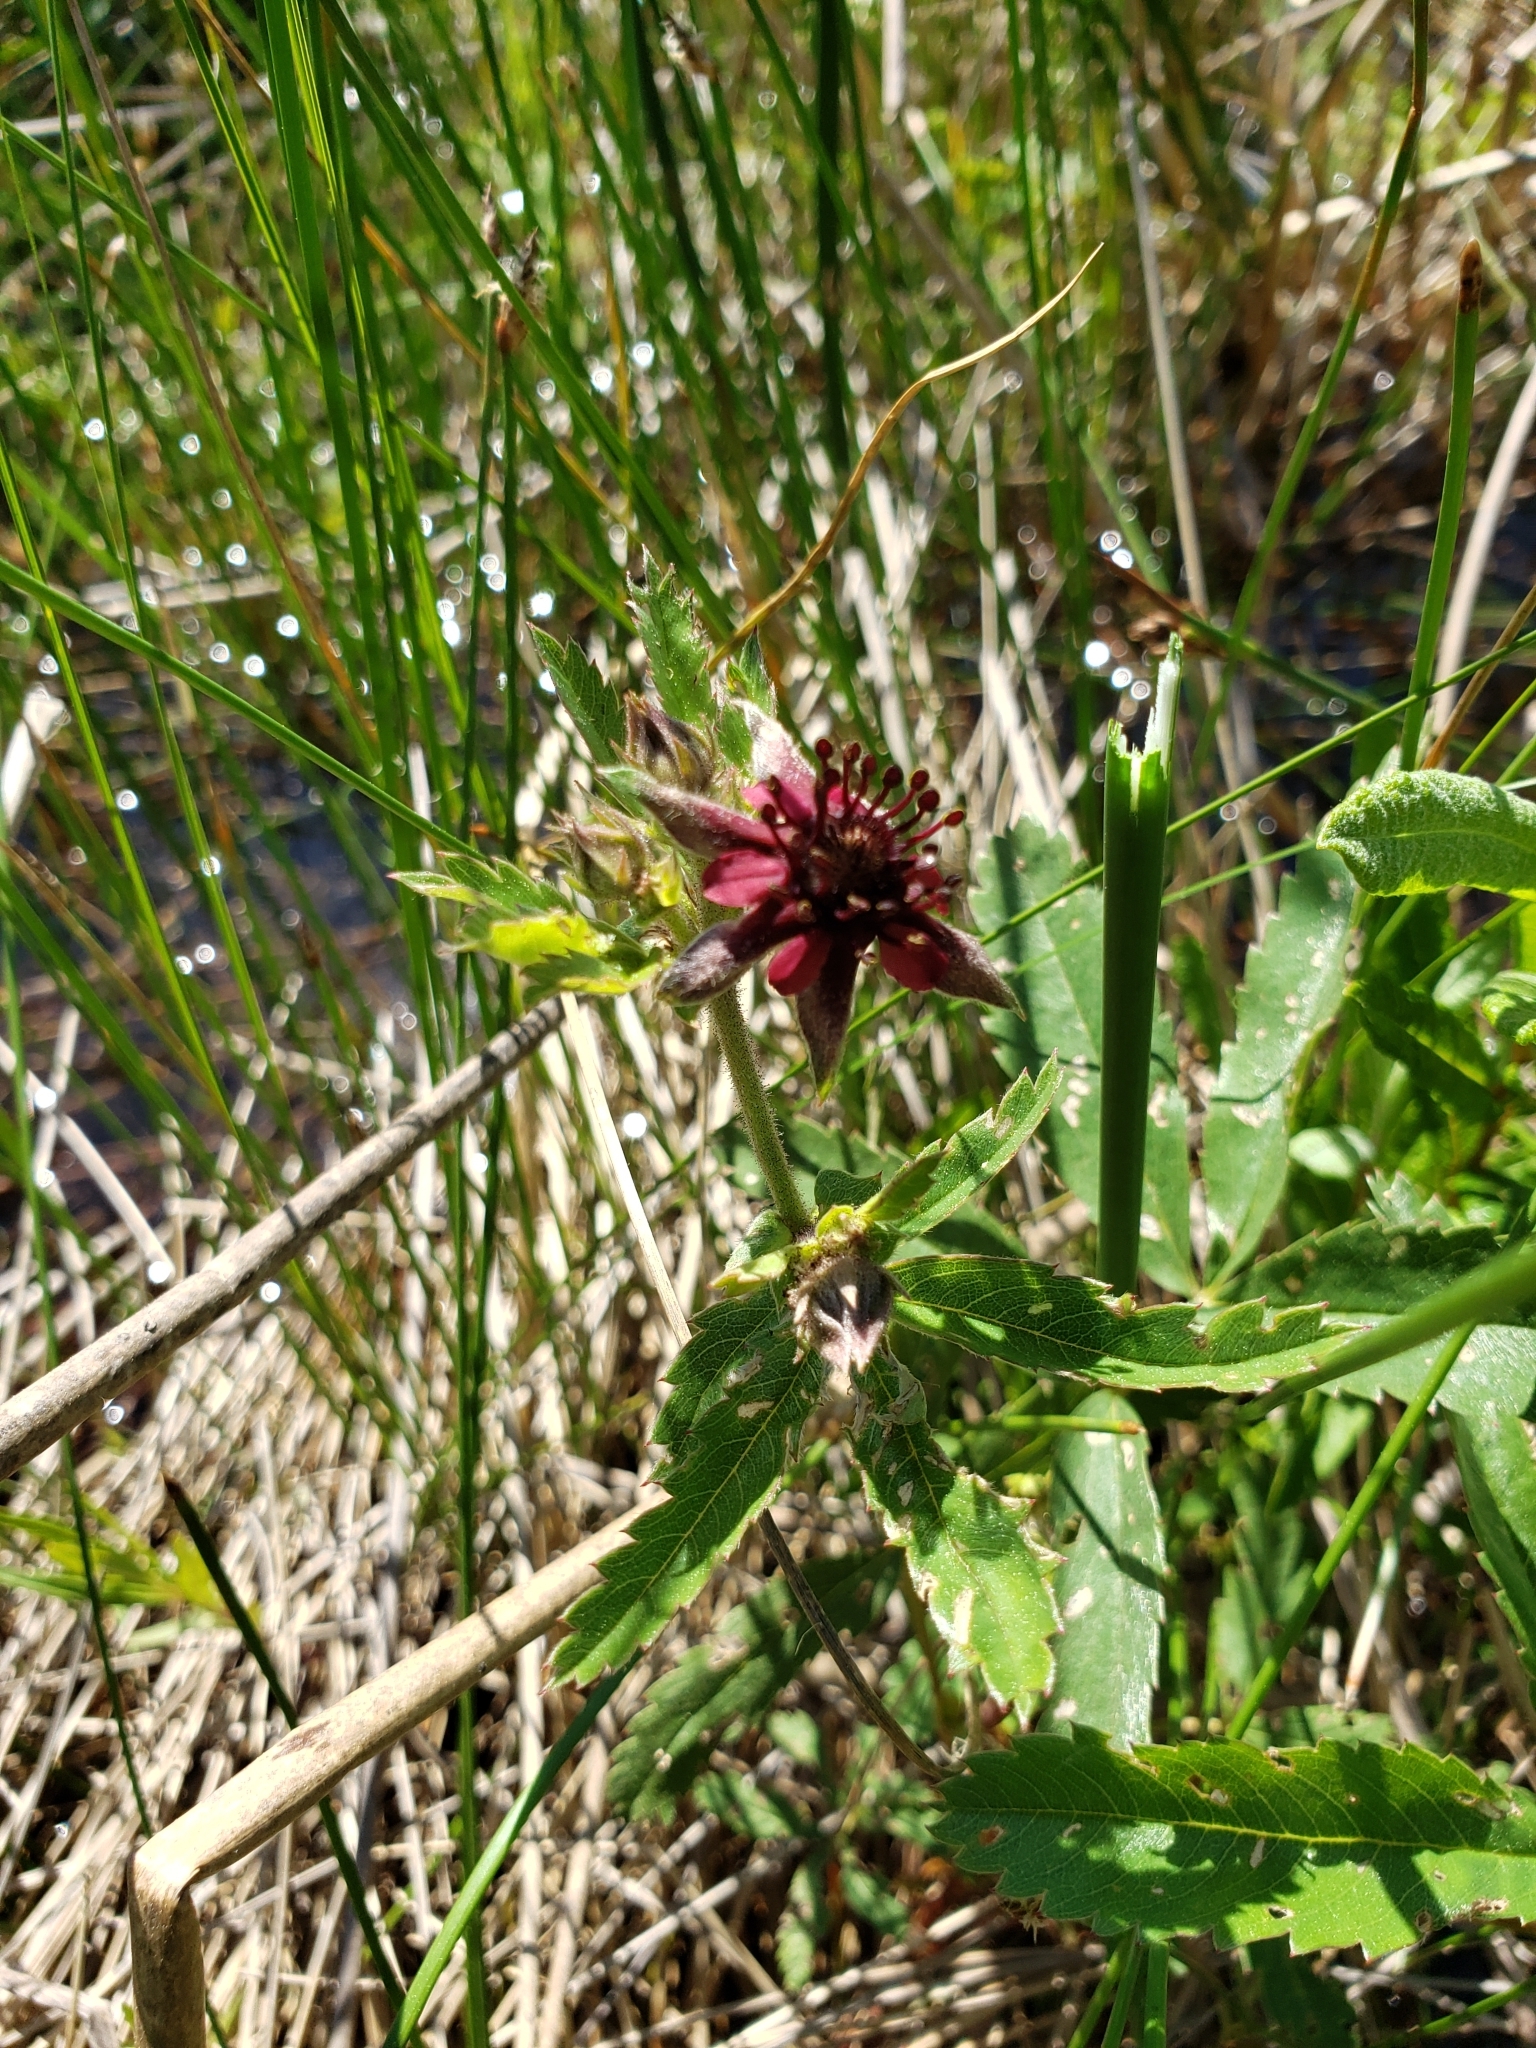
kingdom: Plantae
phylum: Tracheophyta
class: Magnoliopsida
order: Rosales
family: Rosaceae
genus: Comarum
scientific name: Comarum palustre
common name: Marsh cinquefoil
